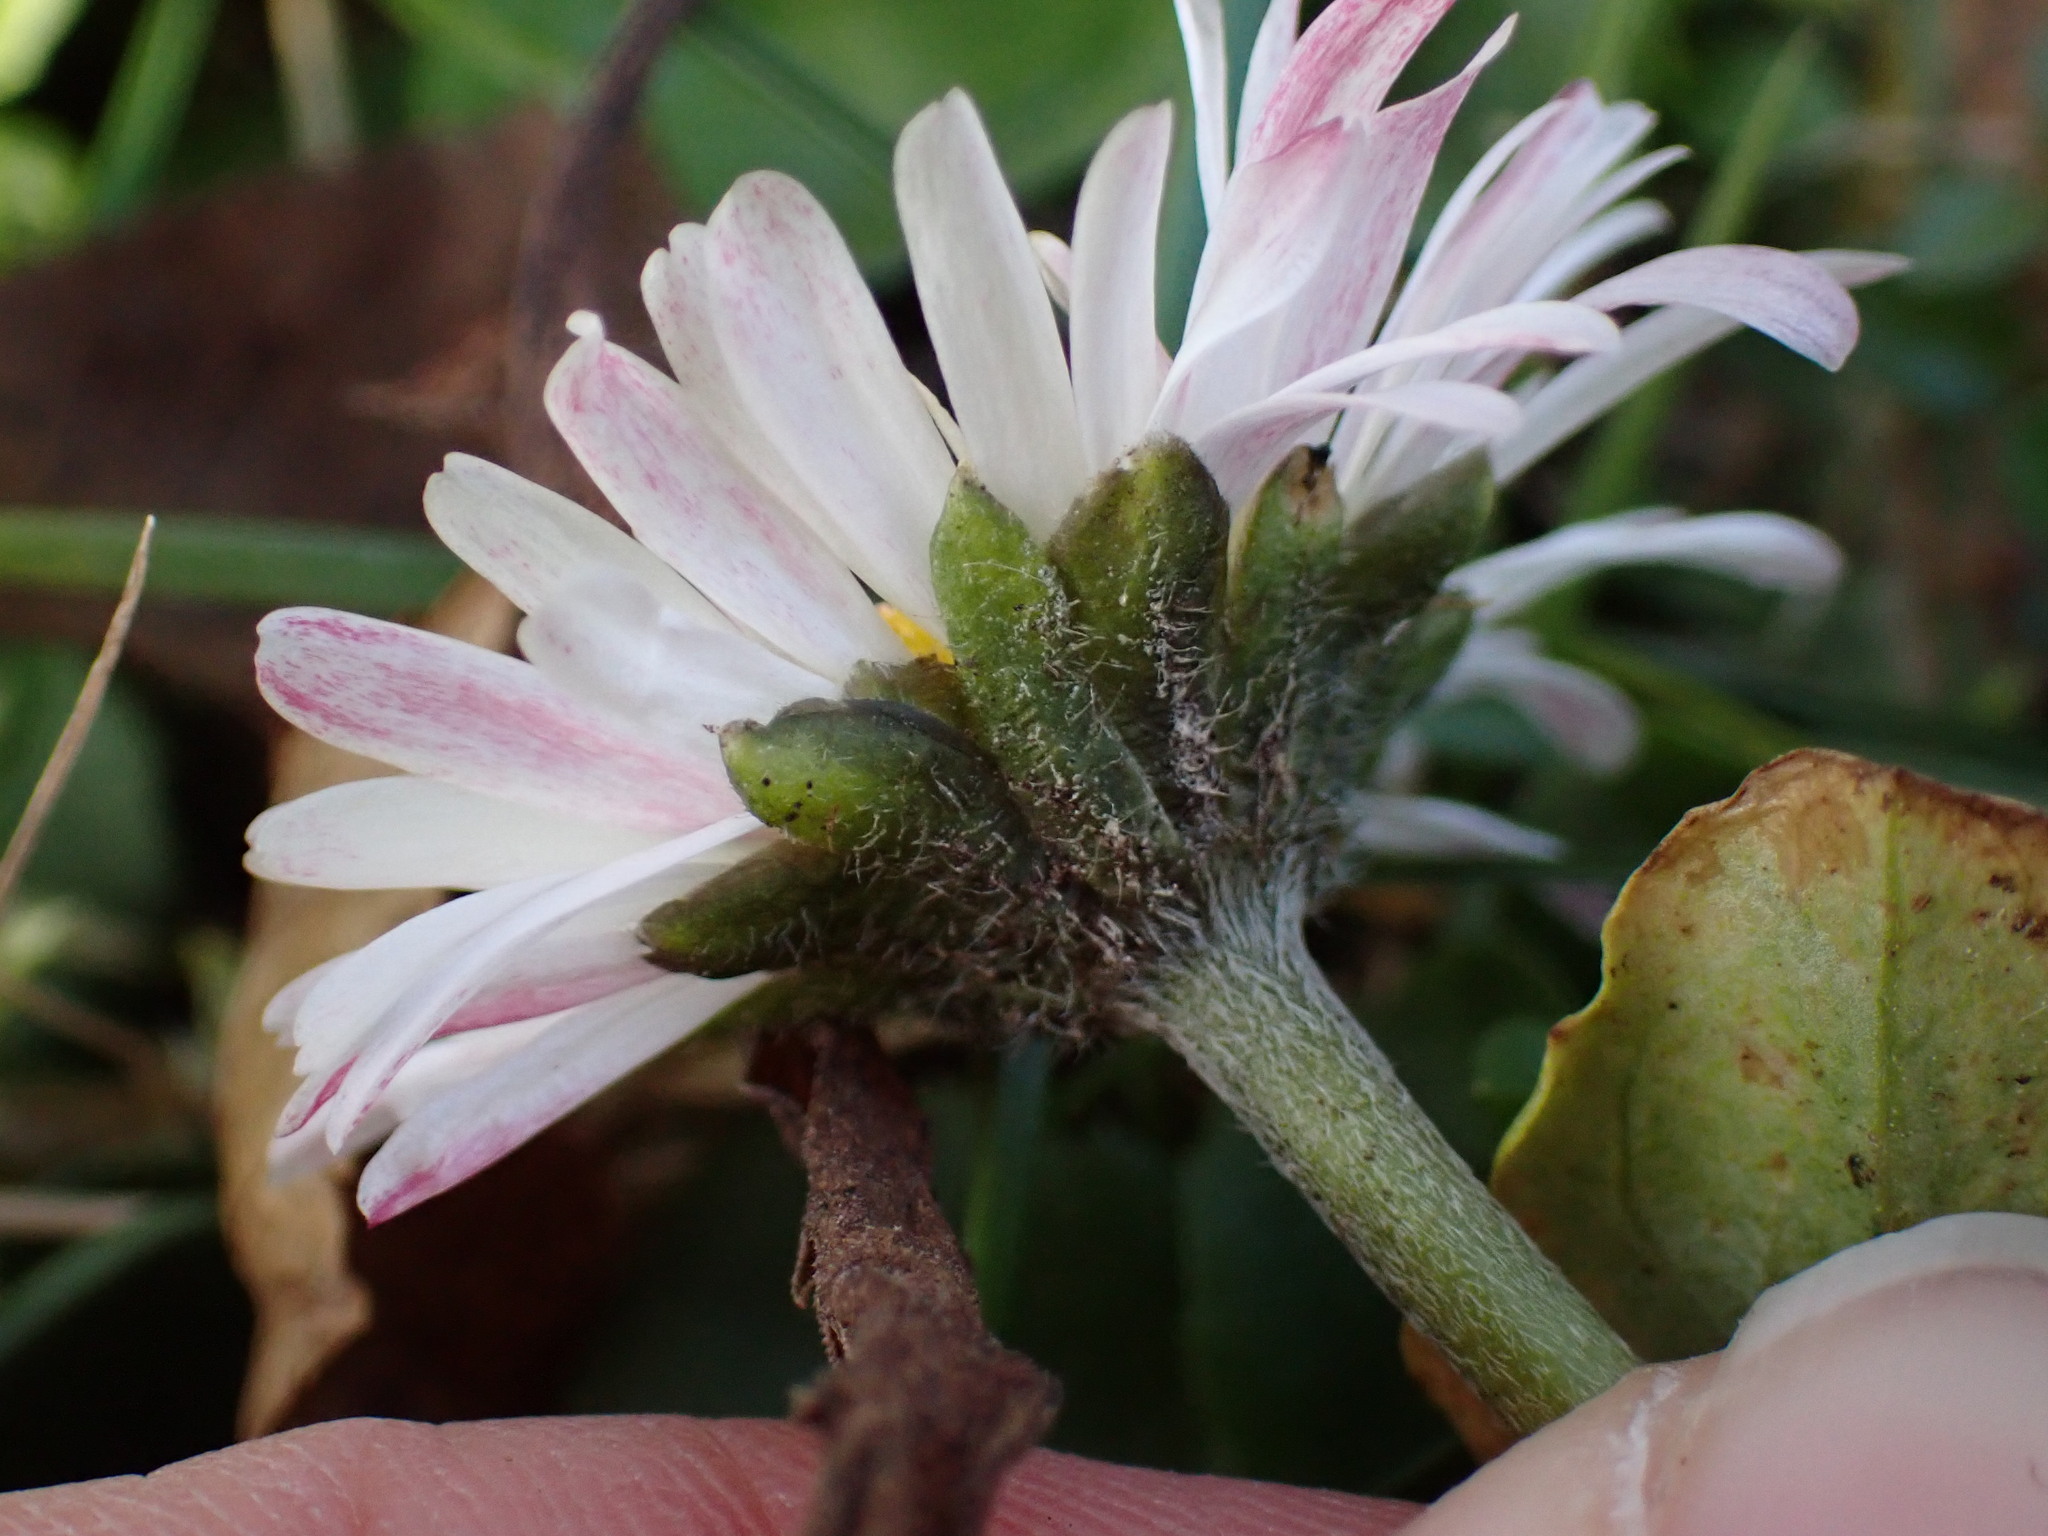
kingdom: Plantae
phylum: Tracheophyta
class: Magnoliopsida
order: Asterales
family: Asteraceae
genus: Bellis
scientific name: Bellis perennis
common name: Lawndaisy
